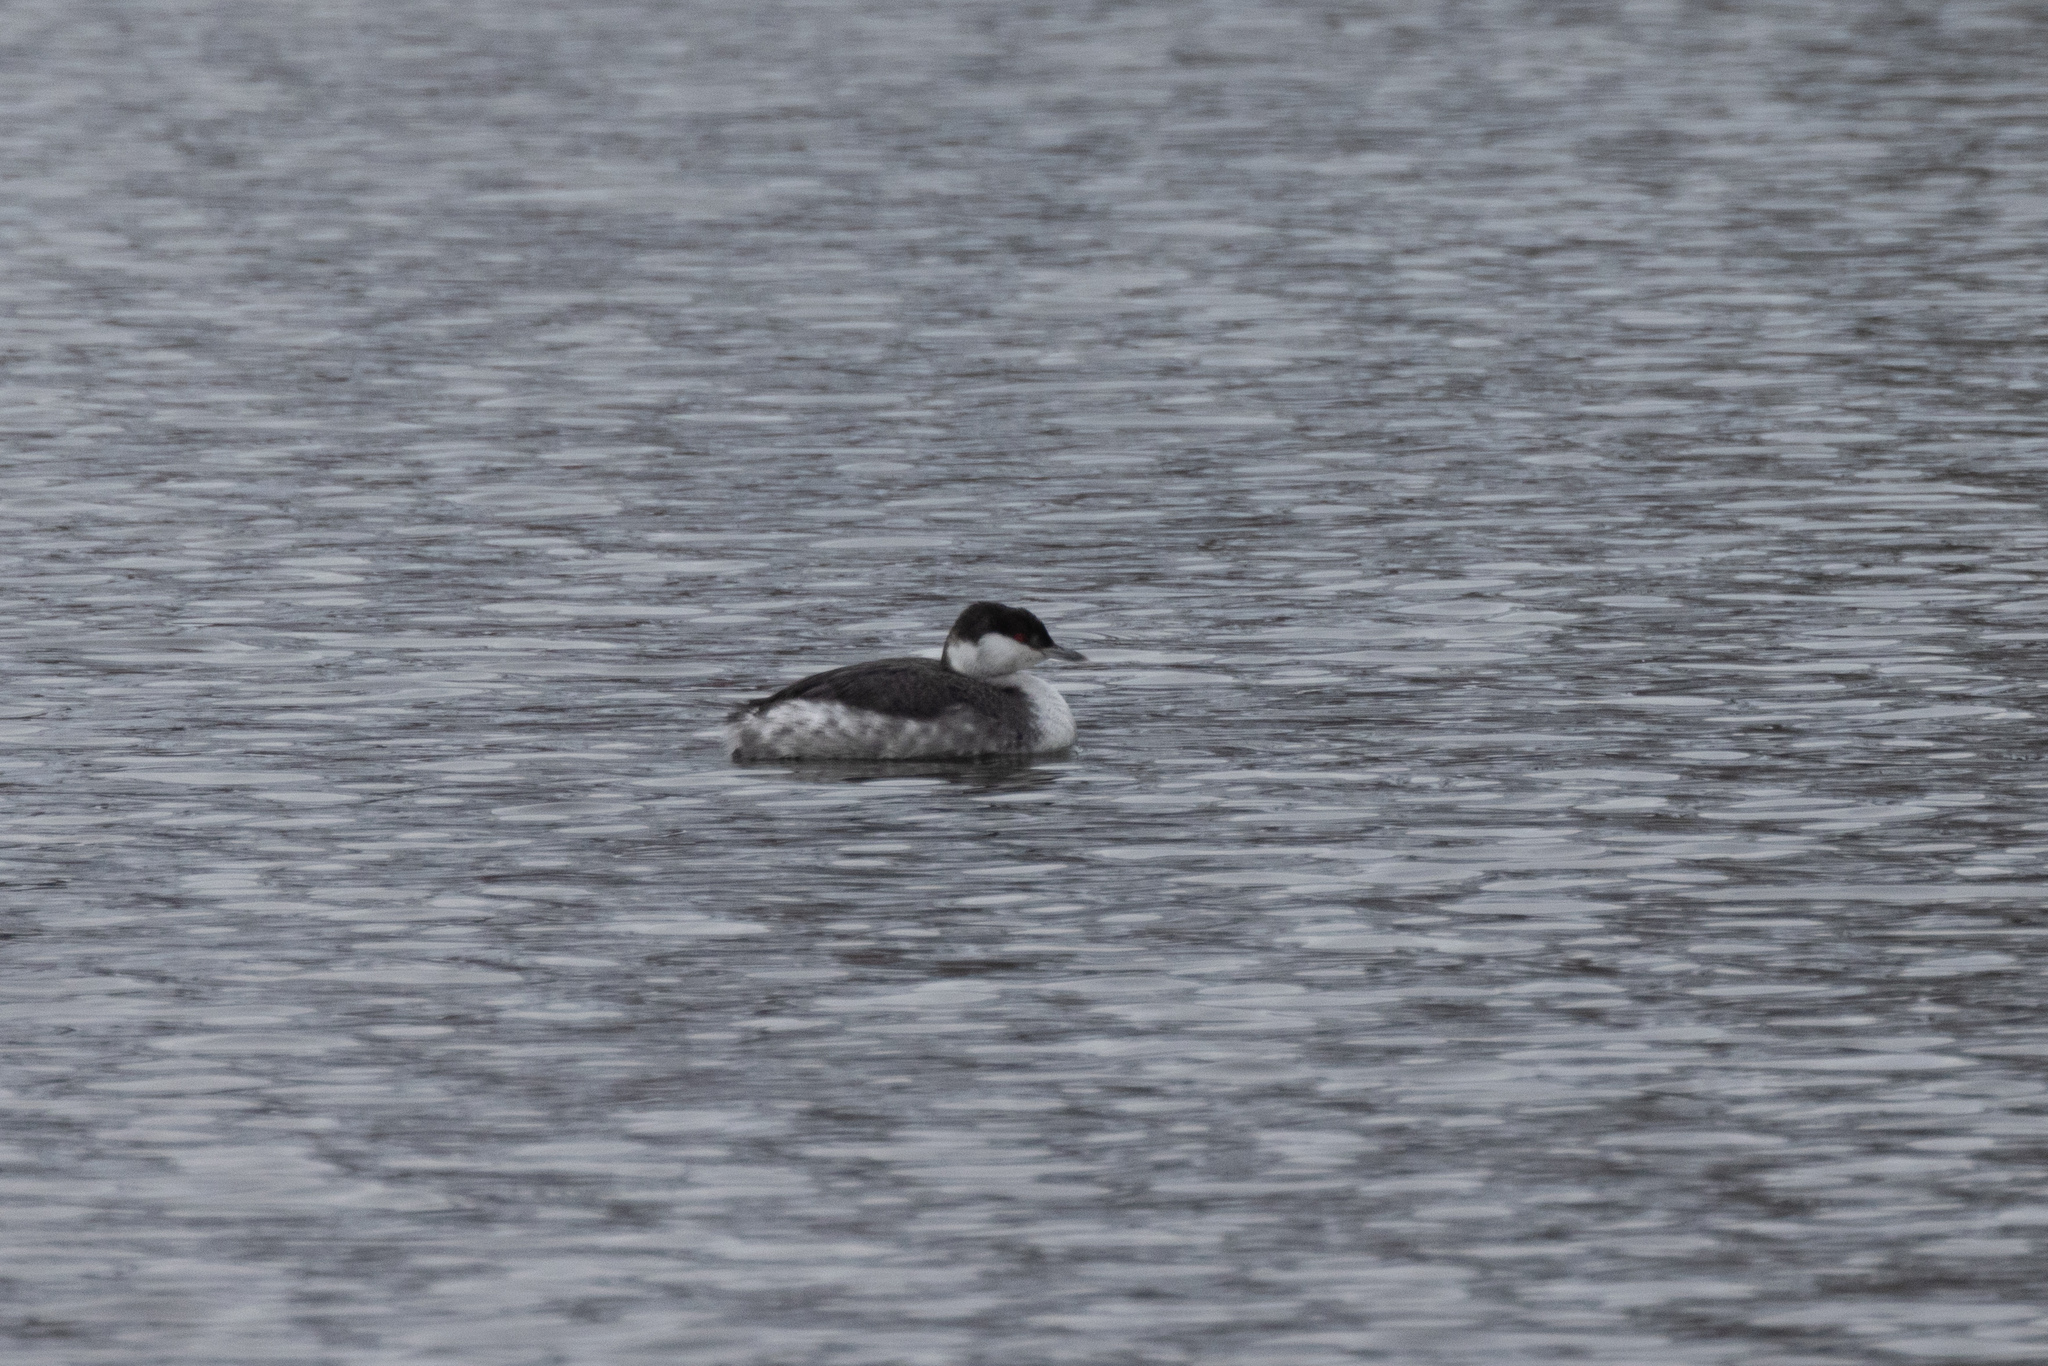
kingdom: Animalia
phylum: Chordata
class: Aves
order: Podicipediformes
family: Podicipedidae
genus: Podiceps
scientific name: Podiceps auritus
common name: Horned grebe
